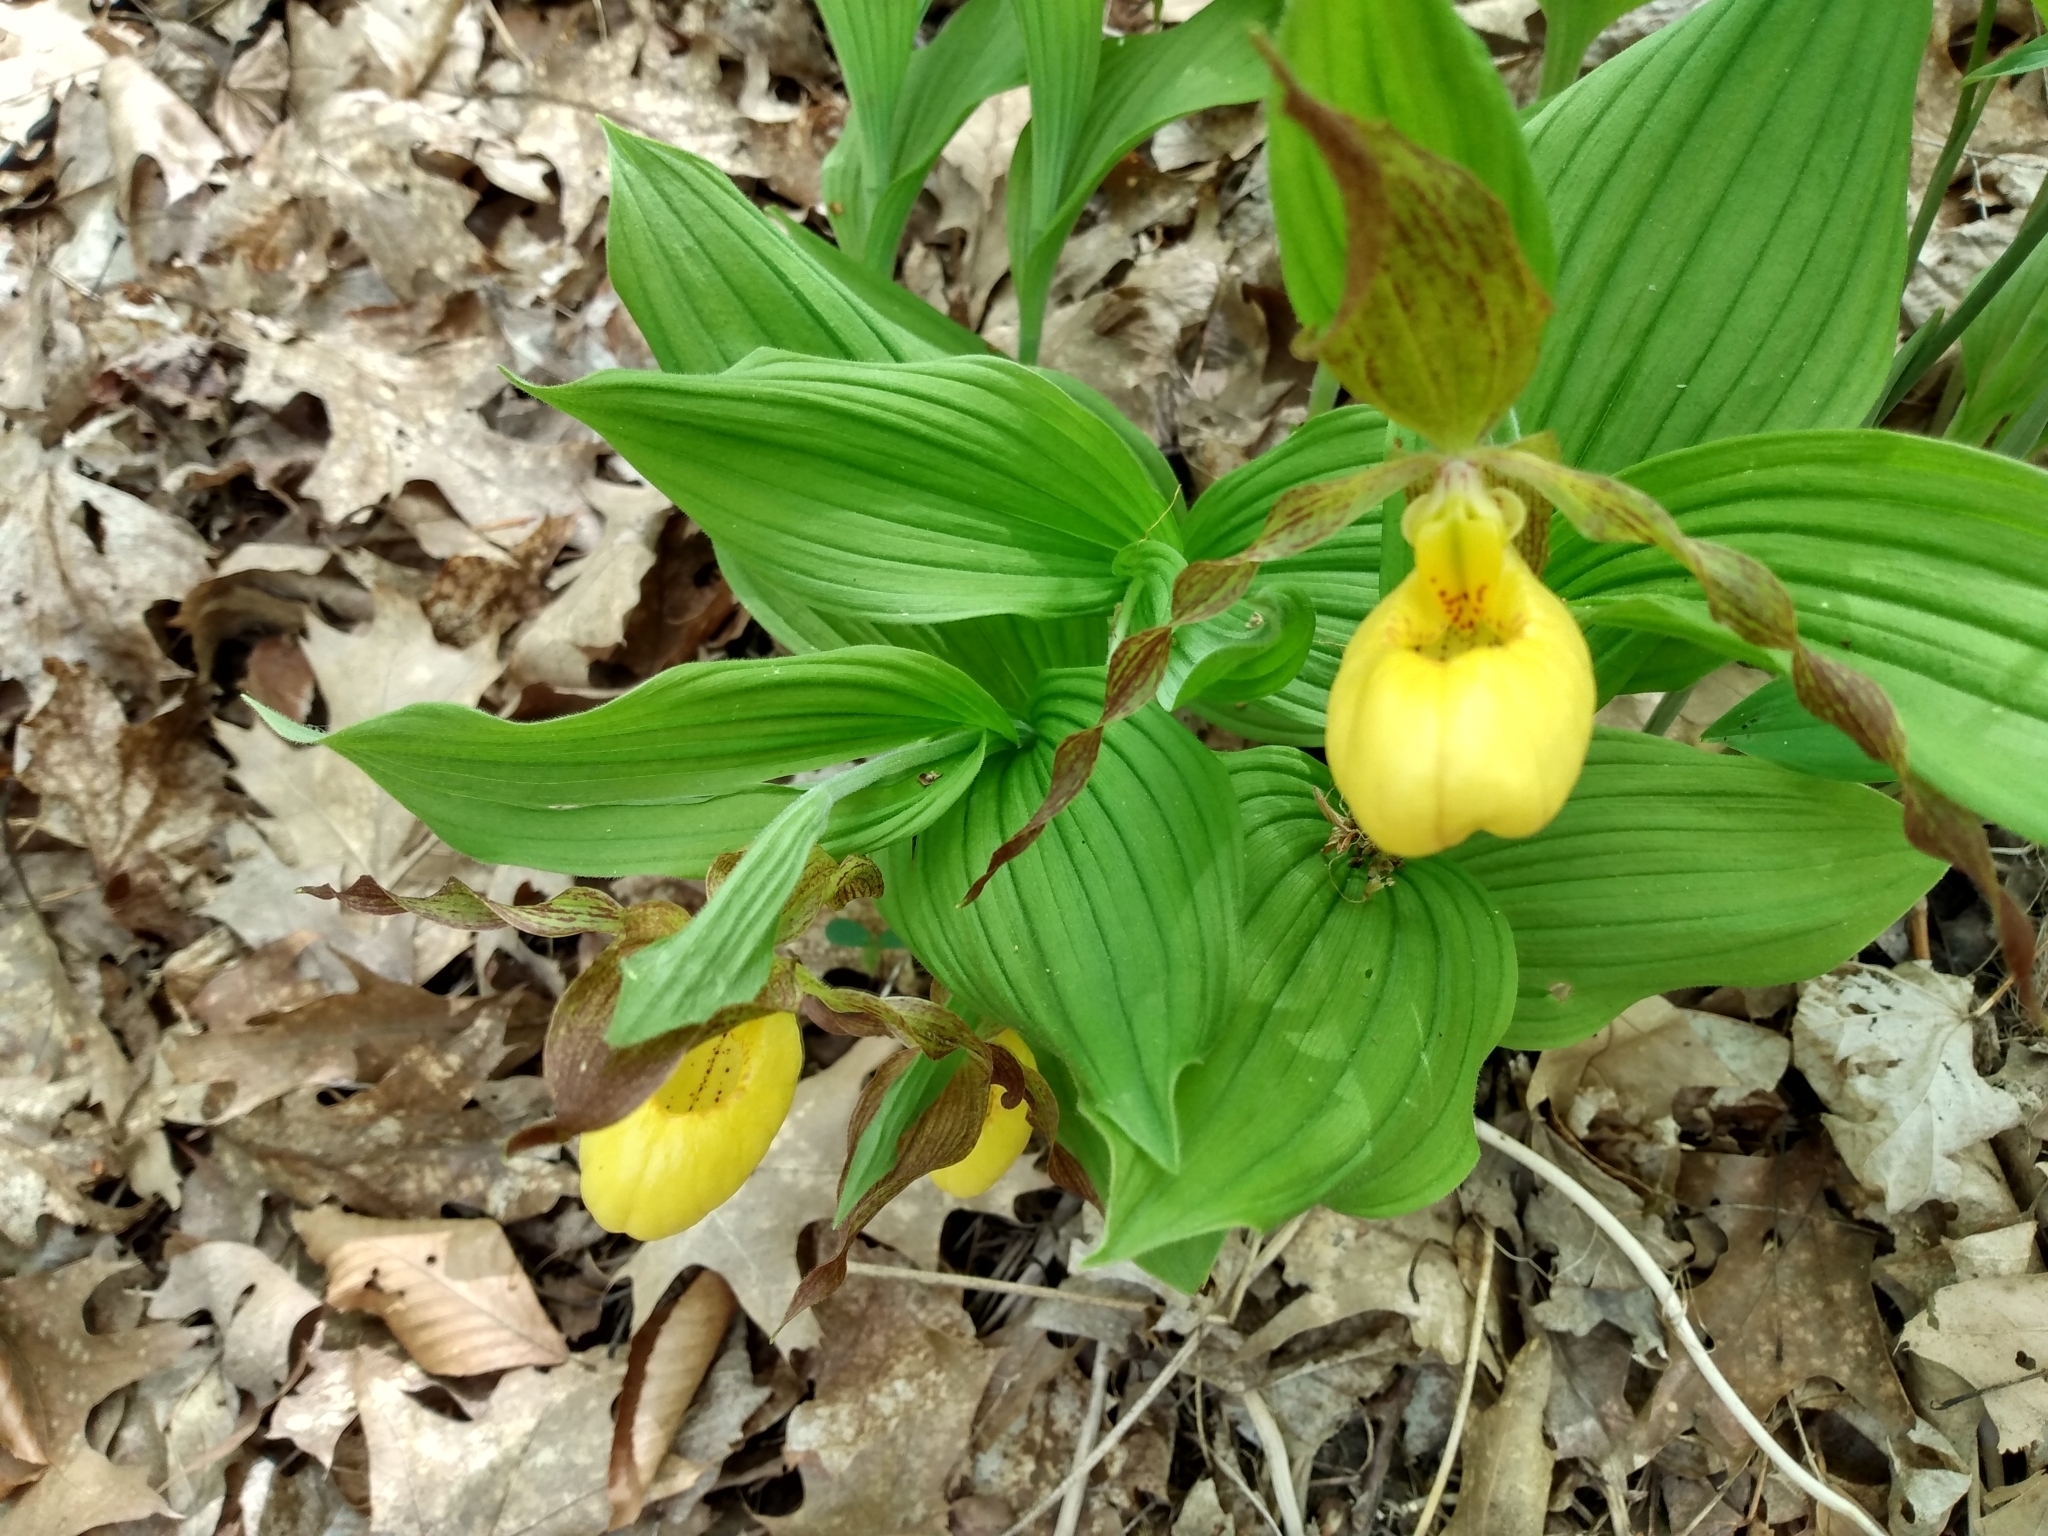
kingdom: Plantae
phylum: Tracheophyta
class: Liliopsida
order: Asparagales
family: Orchidaceae
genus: Cypripedium
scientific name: Cypripedium parviflorum
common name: American yellow lady's-slipper
